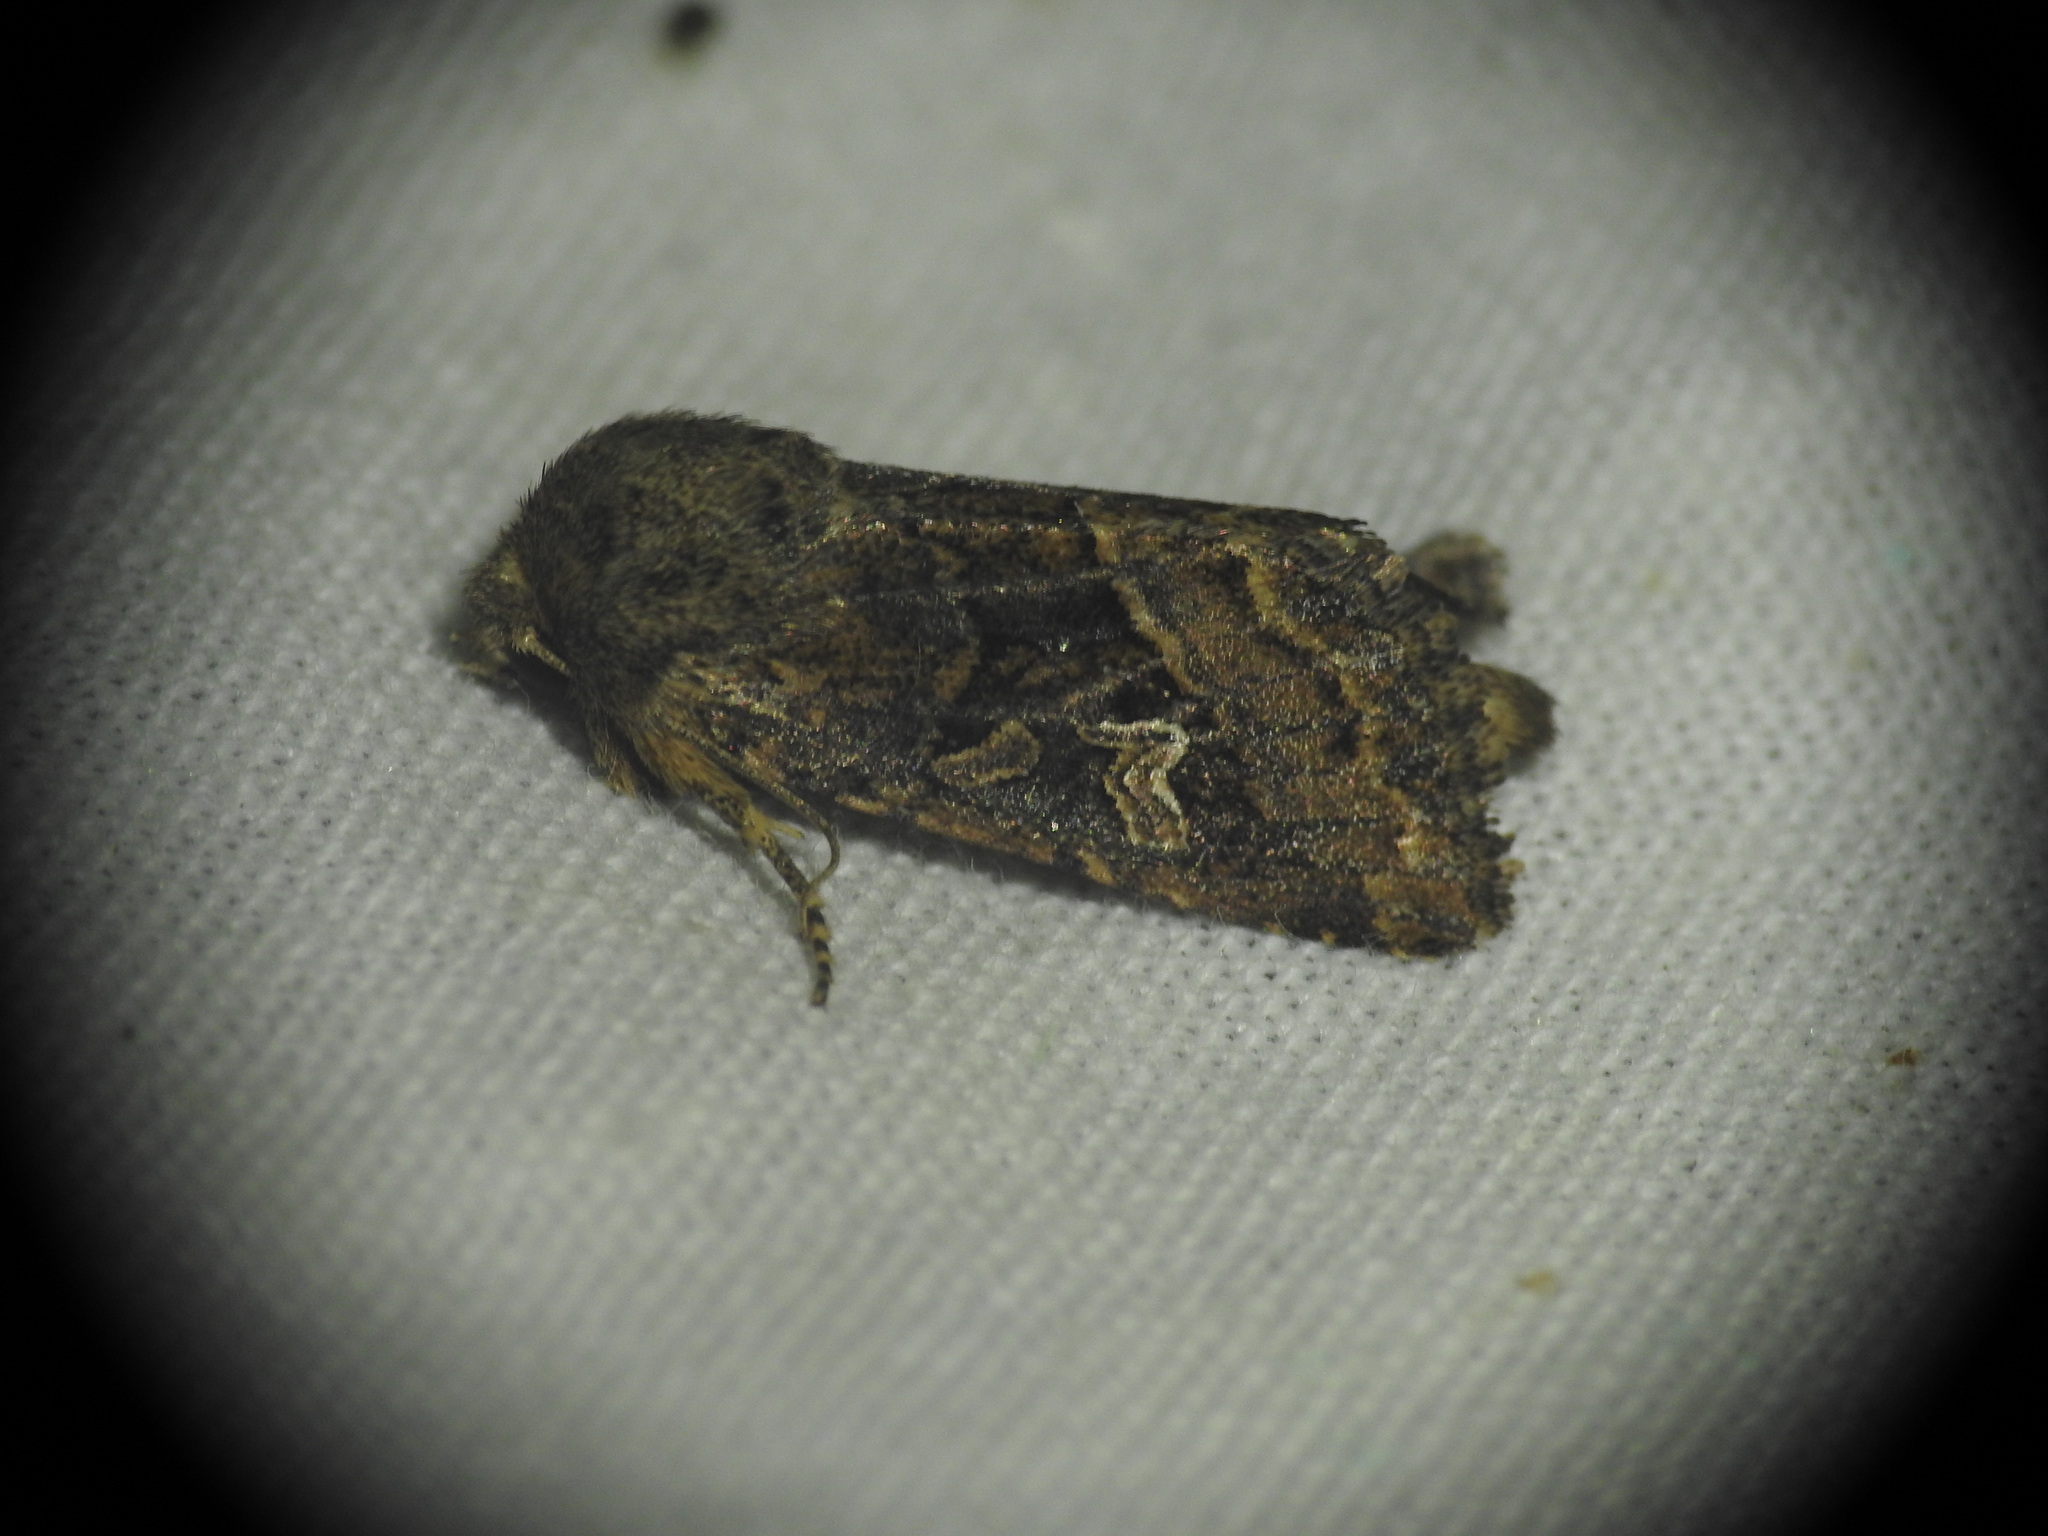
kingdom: Animalia
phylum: Arthropoda
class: Insecta
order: Lepidoptera
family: Noctuidae
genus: Luperina
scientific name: Luperina dumerilii
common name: Dumeril's rustic
